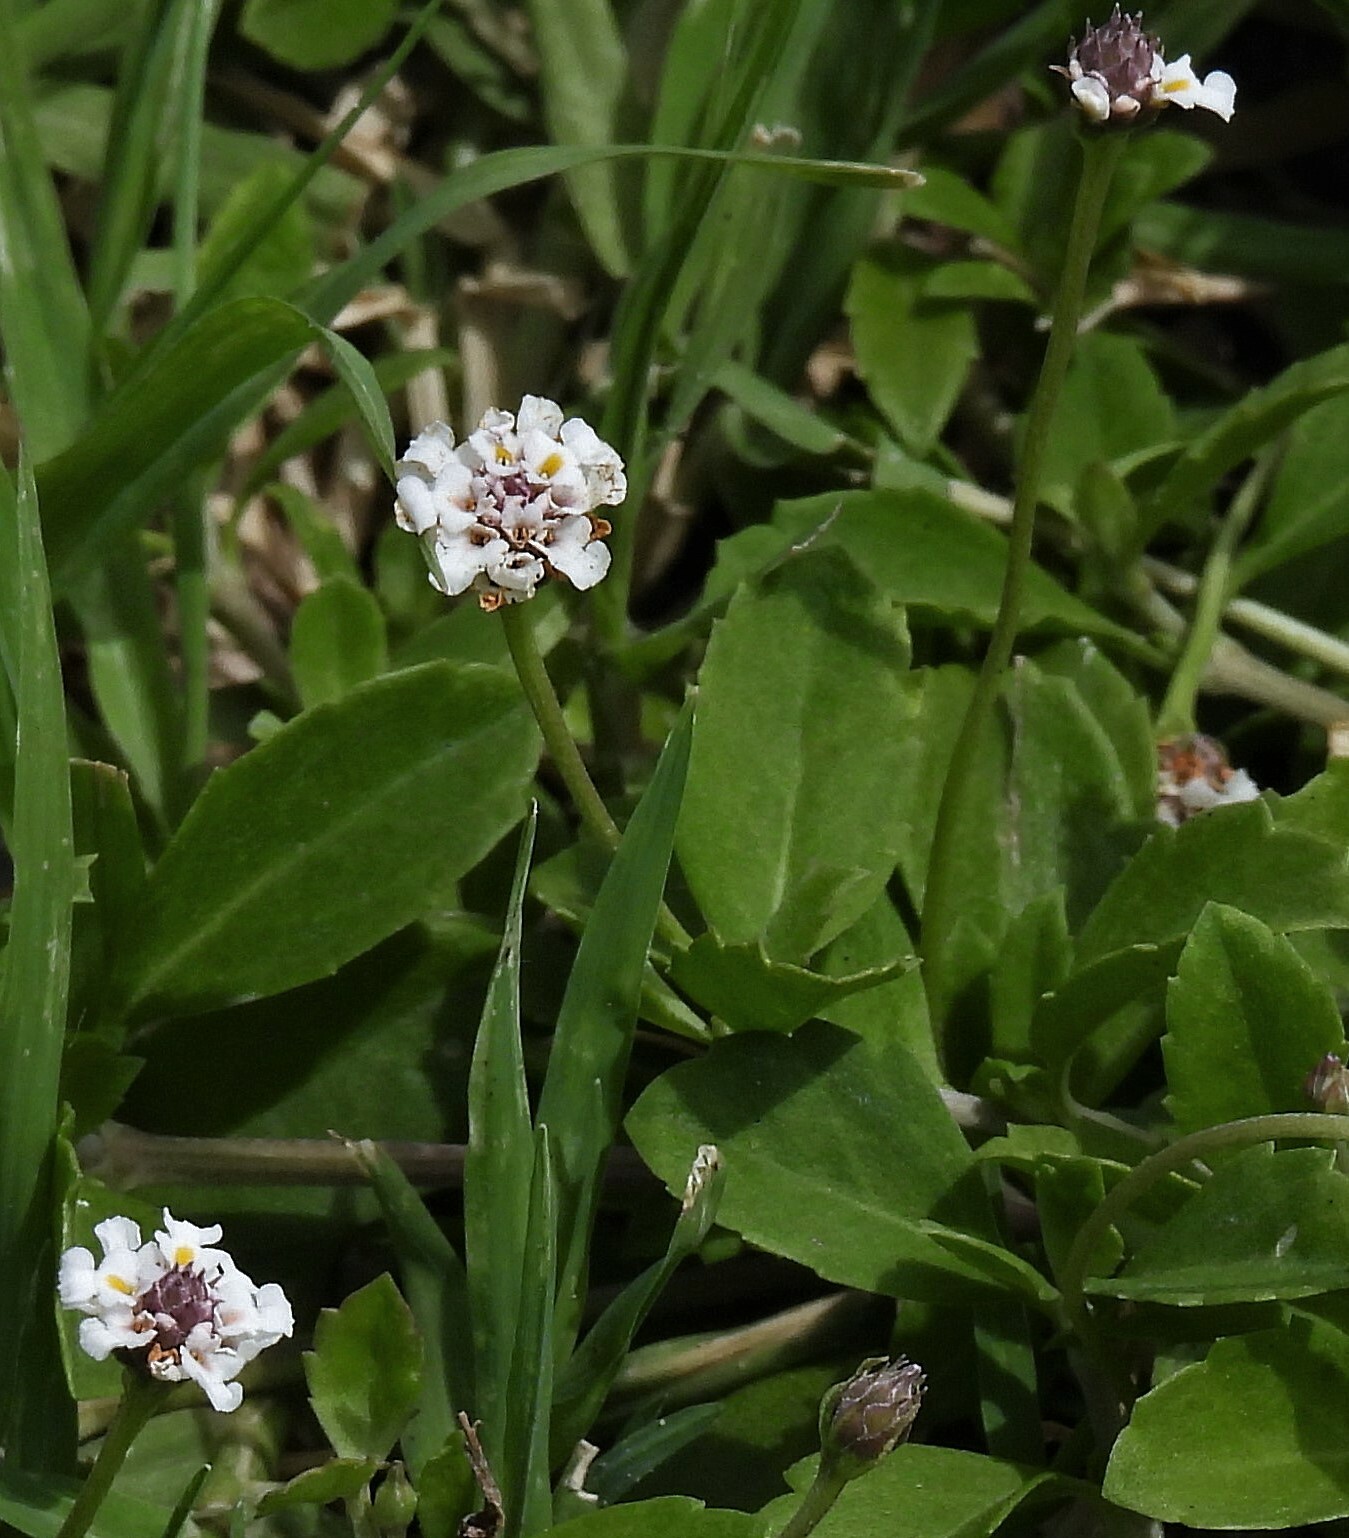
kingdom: Plantae
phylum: Tracheophyta
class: Magnoliopsida
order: Lamiales
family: Verbenaceae
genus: Phyla
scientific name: Phyla nodiflora
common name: Frogfruit
